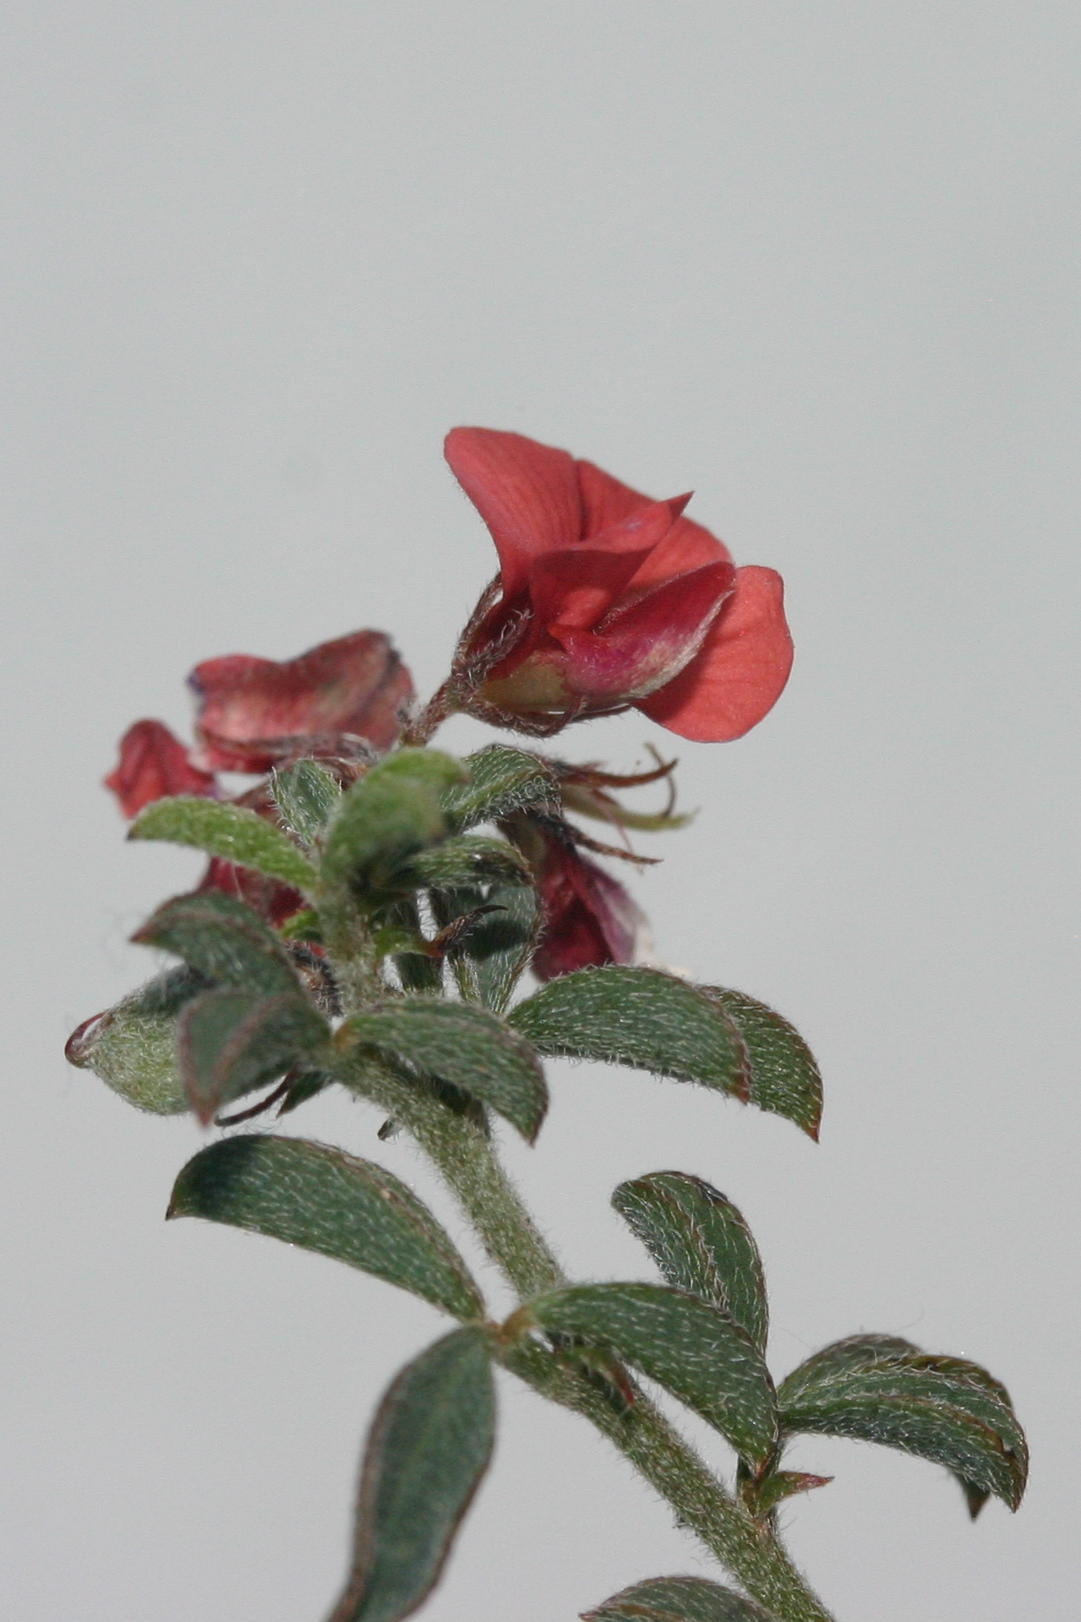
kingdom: Plantae
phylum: Tracheophyta
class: Magnoliopsida
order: Fabales
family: Fabaceae
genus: Indigofera
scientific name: Indigofera priorii
